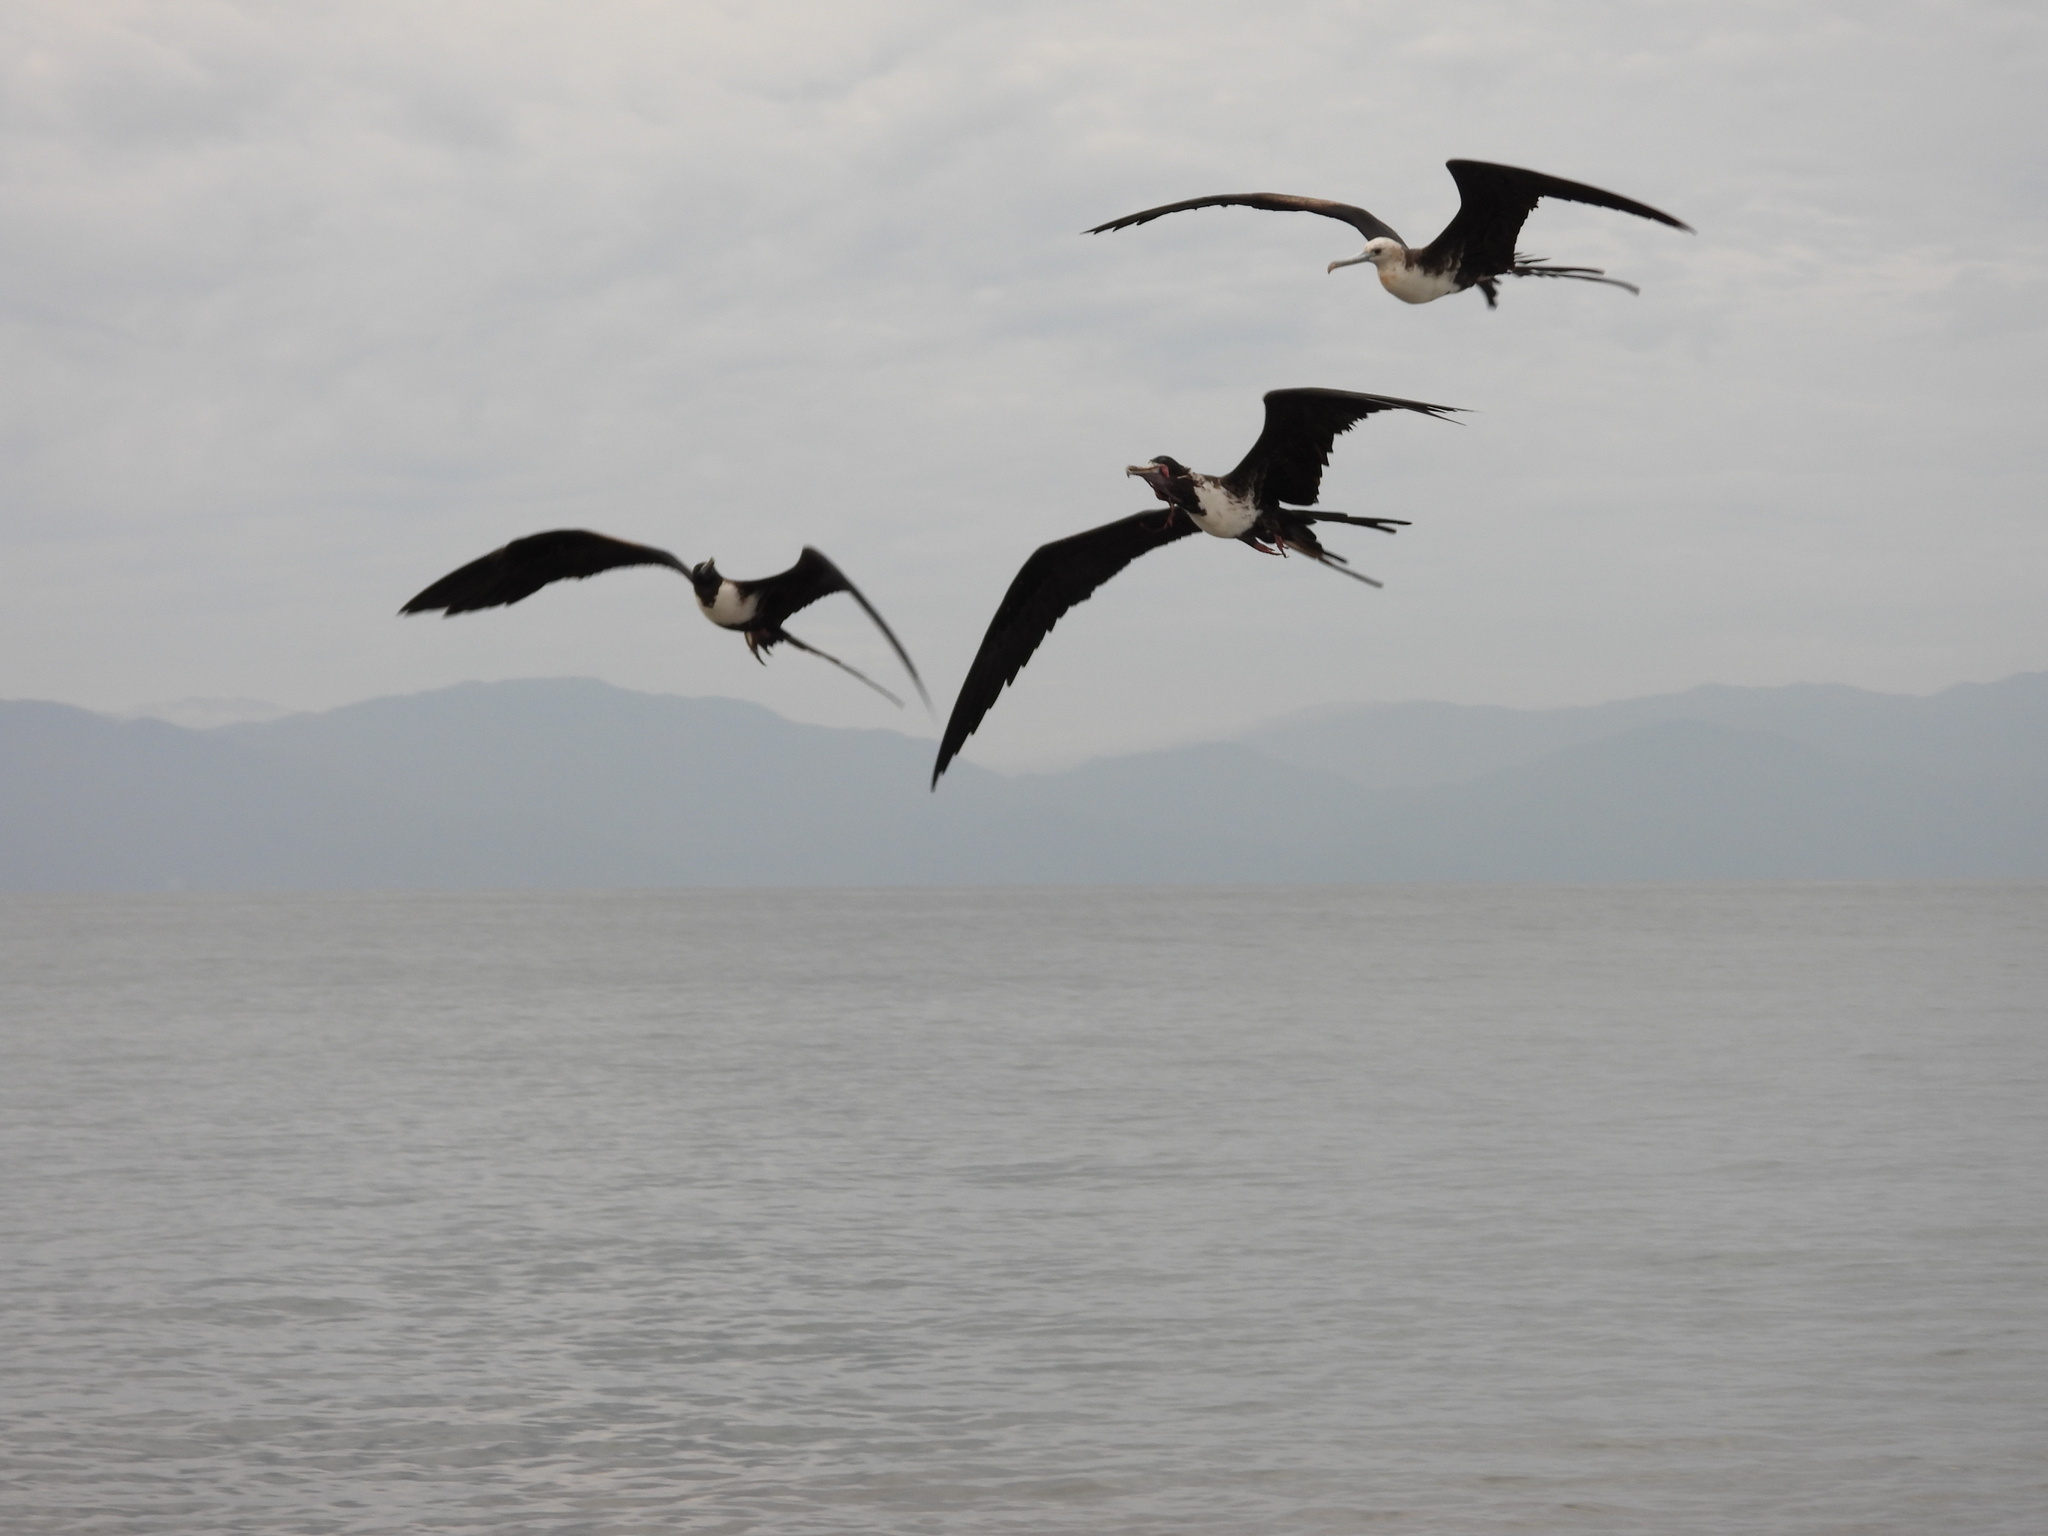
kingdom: Animalia
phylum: Chordata
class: Aves
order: Suliformes
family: Fregatidae
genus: Fregata
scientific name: Fregata magnificens
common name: Magnificent frigatebird
